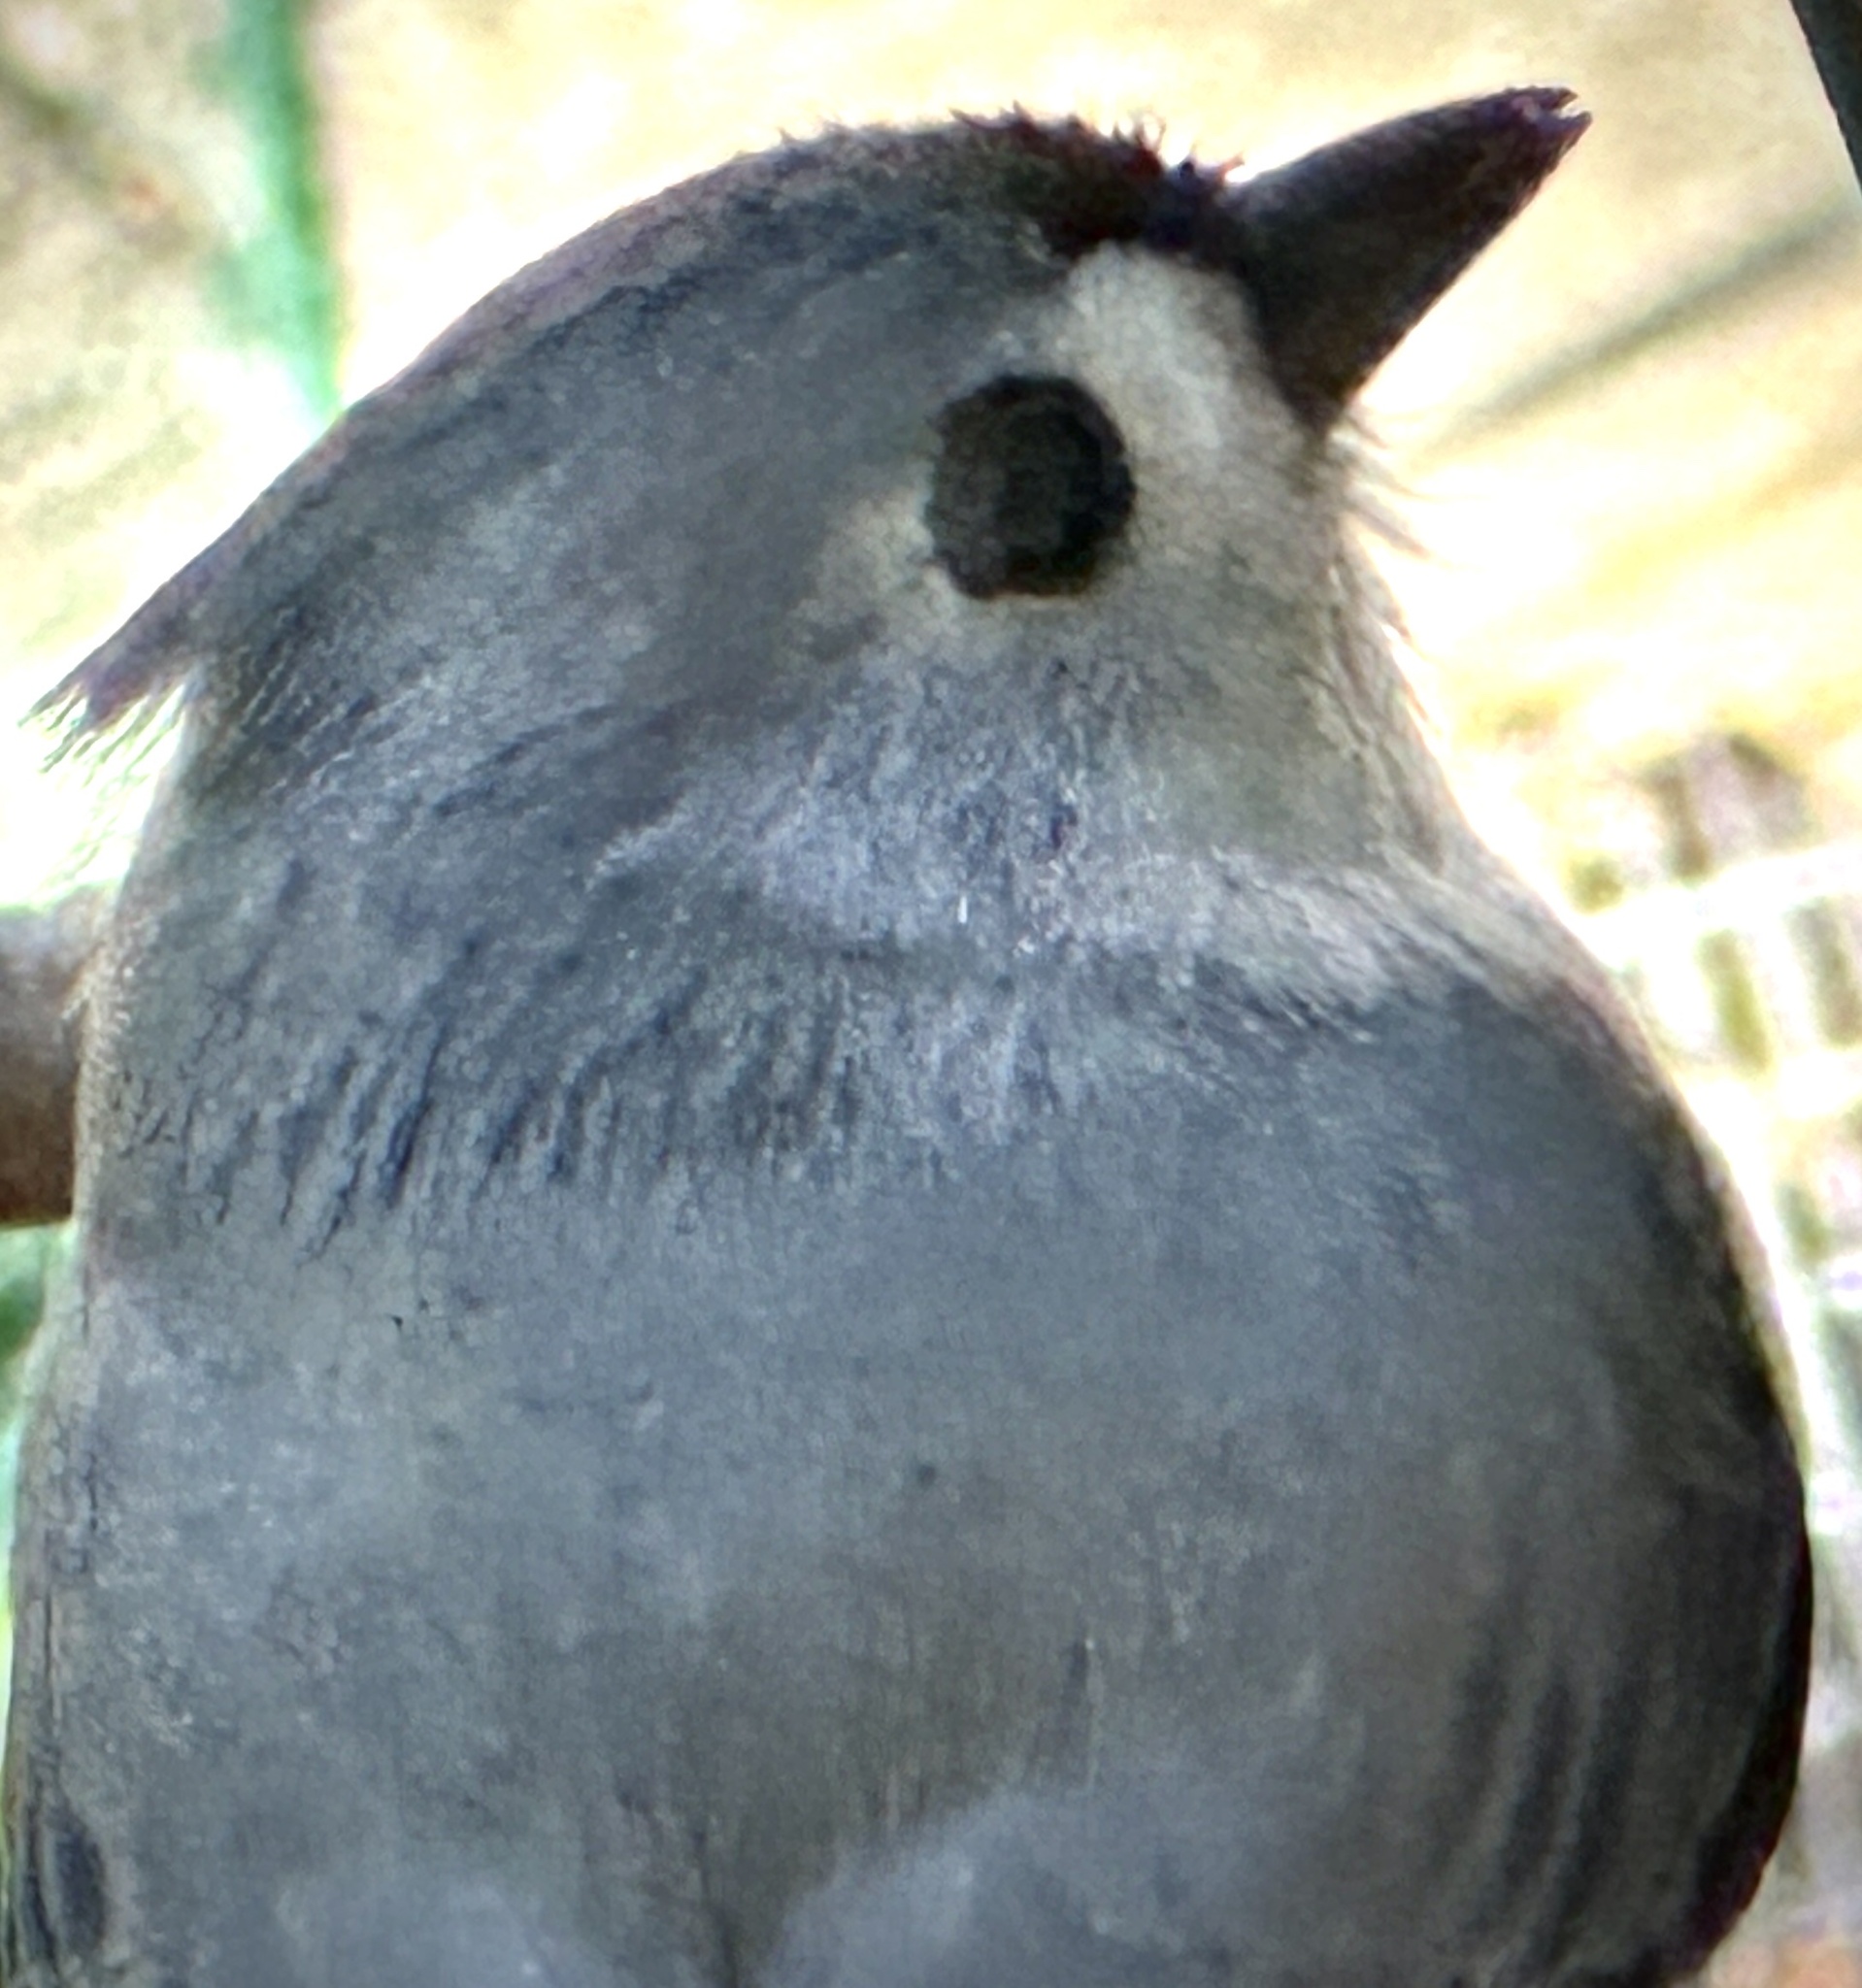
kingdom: Animalia
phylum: Chordata
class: Aves
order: Passeriformes
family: Paridae
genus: Baeolophus
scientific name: Baeolophus bicolor
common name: Tufted titmouse
